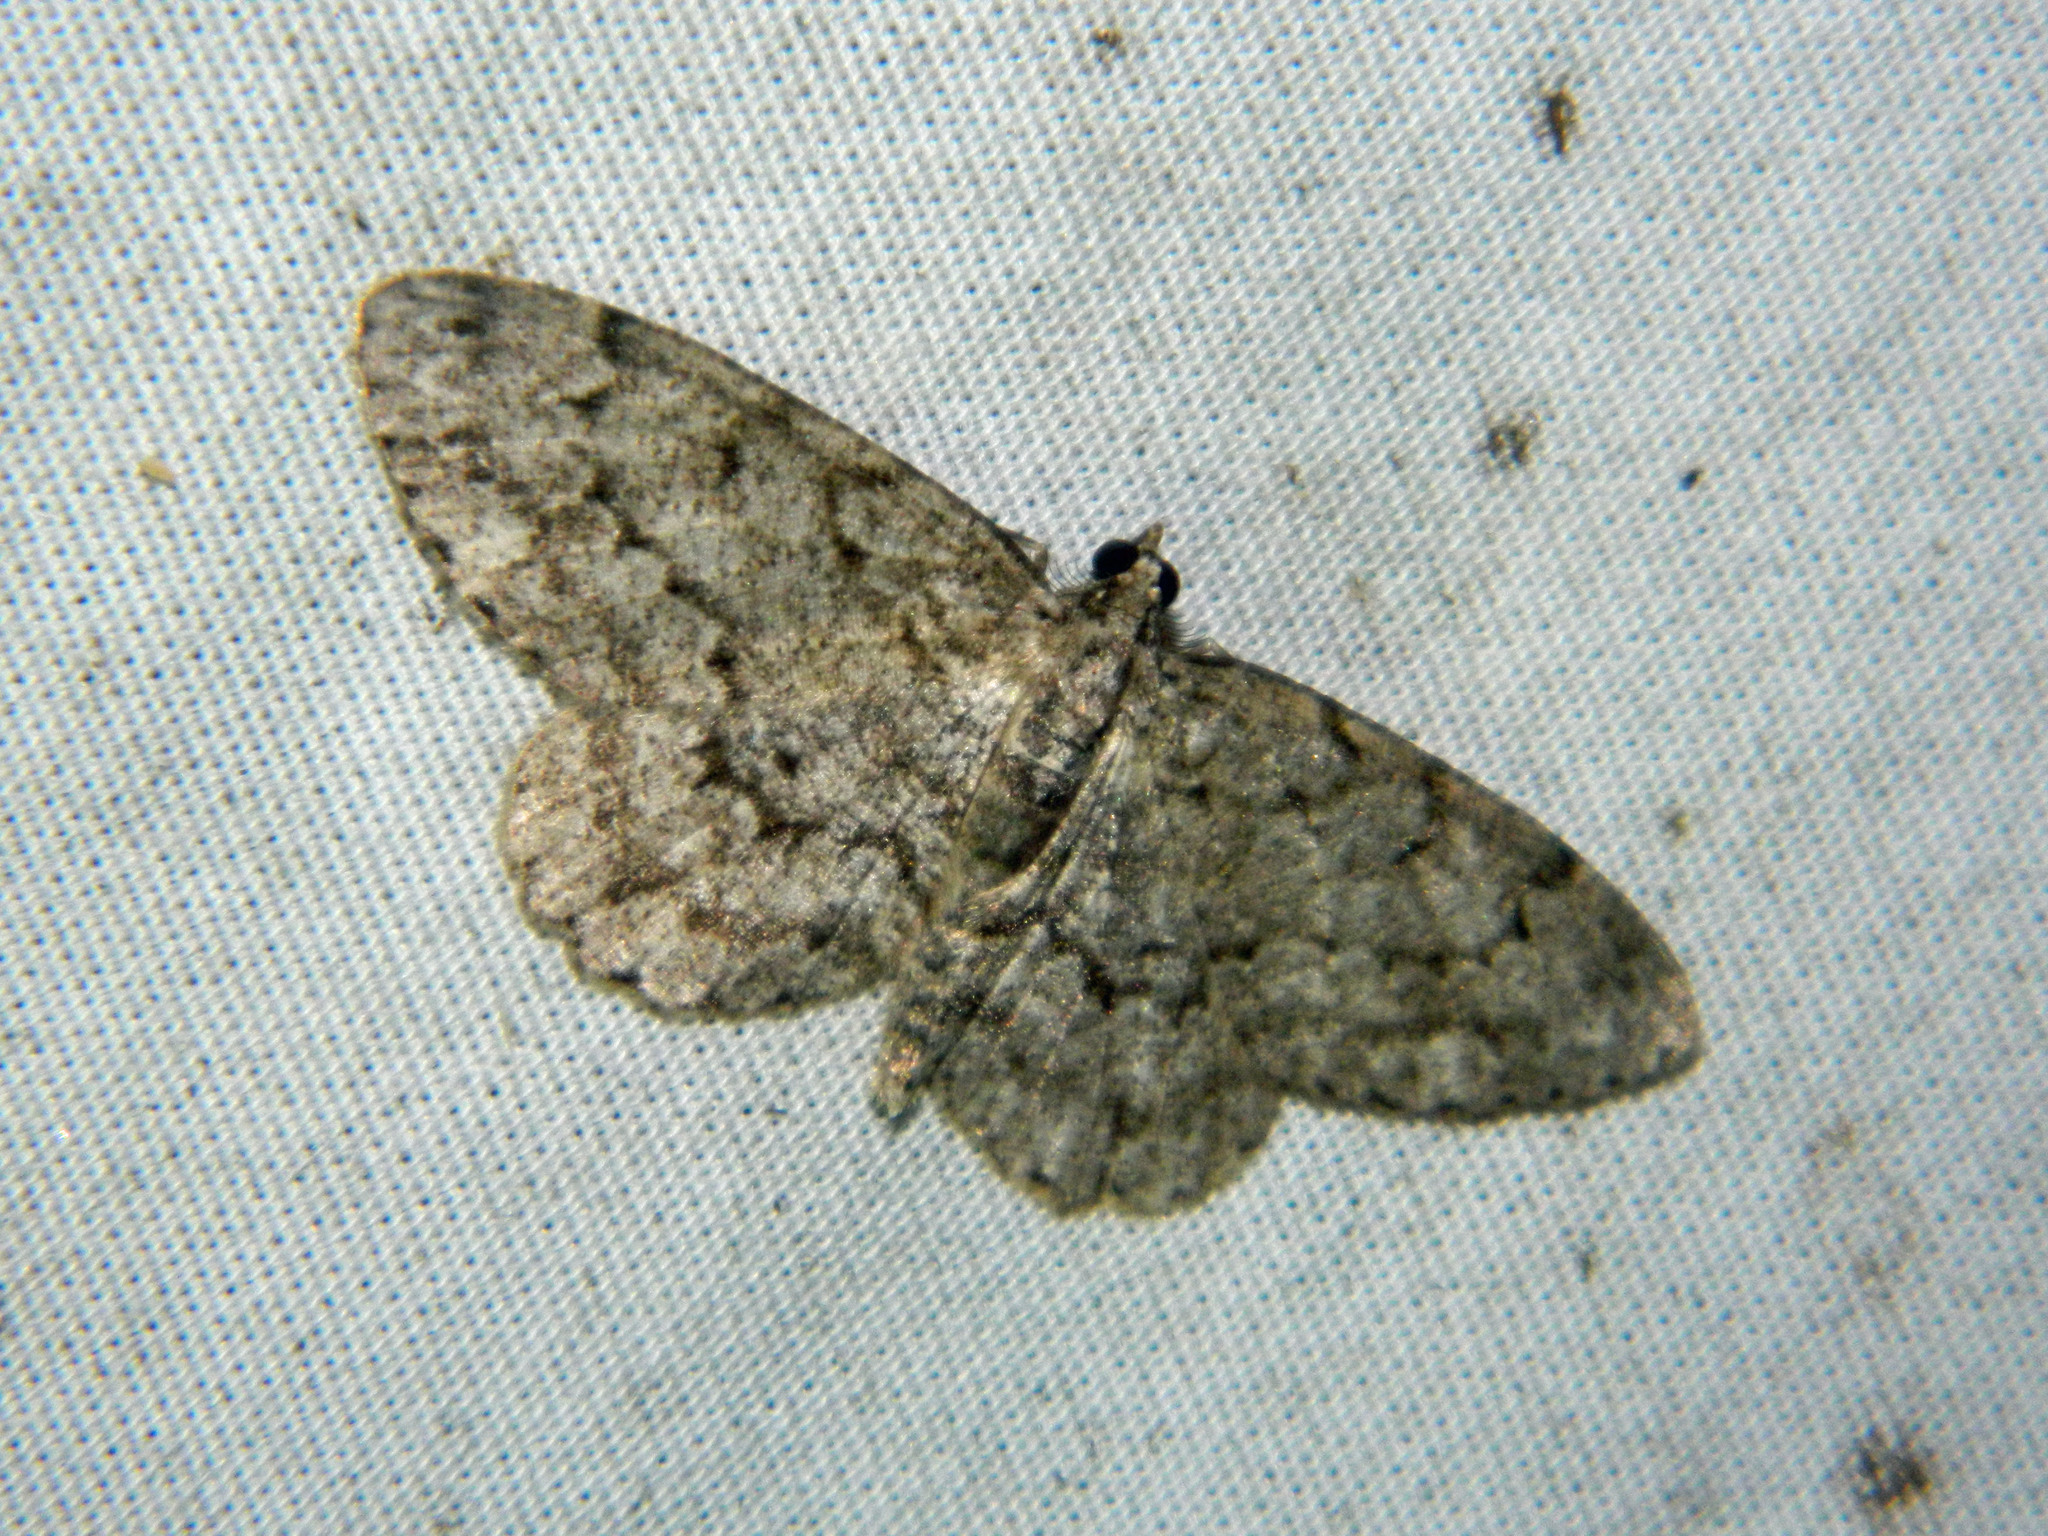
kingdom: Animalia
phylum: Arthropoda
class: Insecta
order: Lepidoptera
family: Geometridae
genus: Protoboarmia
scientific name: Protoboarmia porcelaria
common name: Porcelain gray
